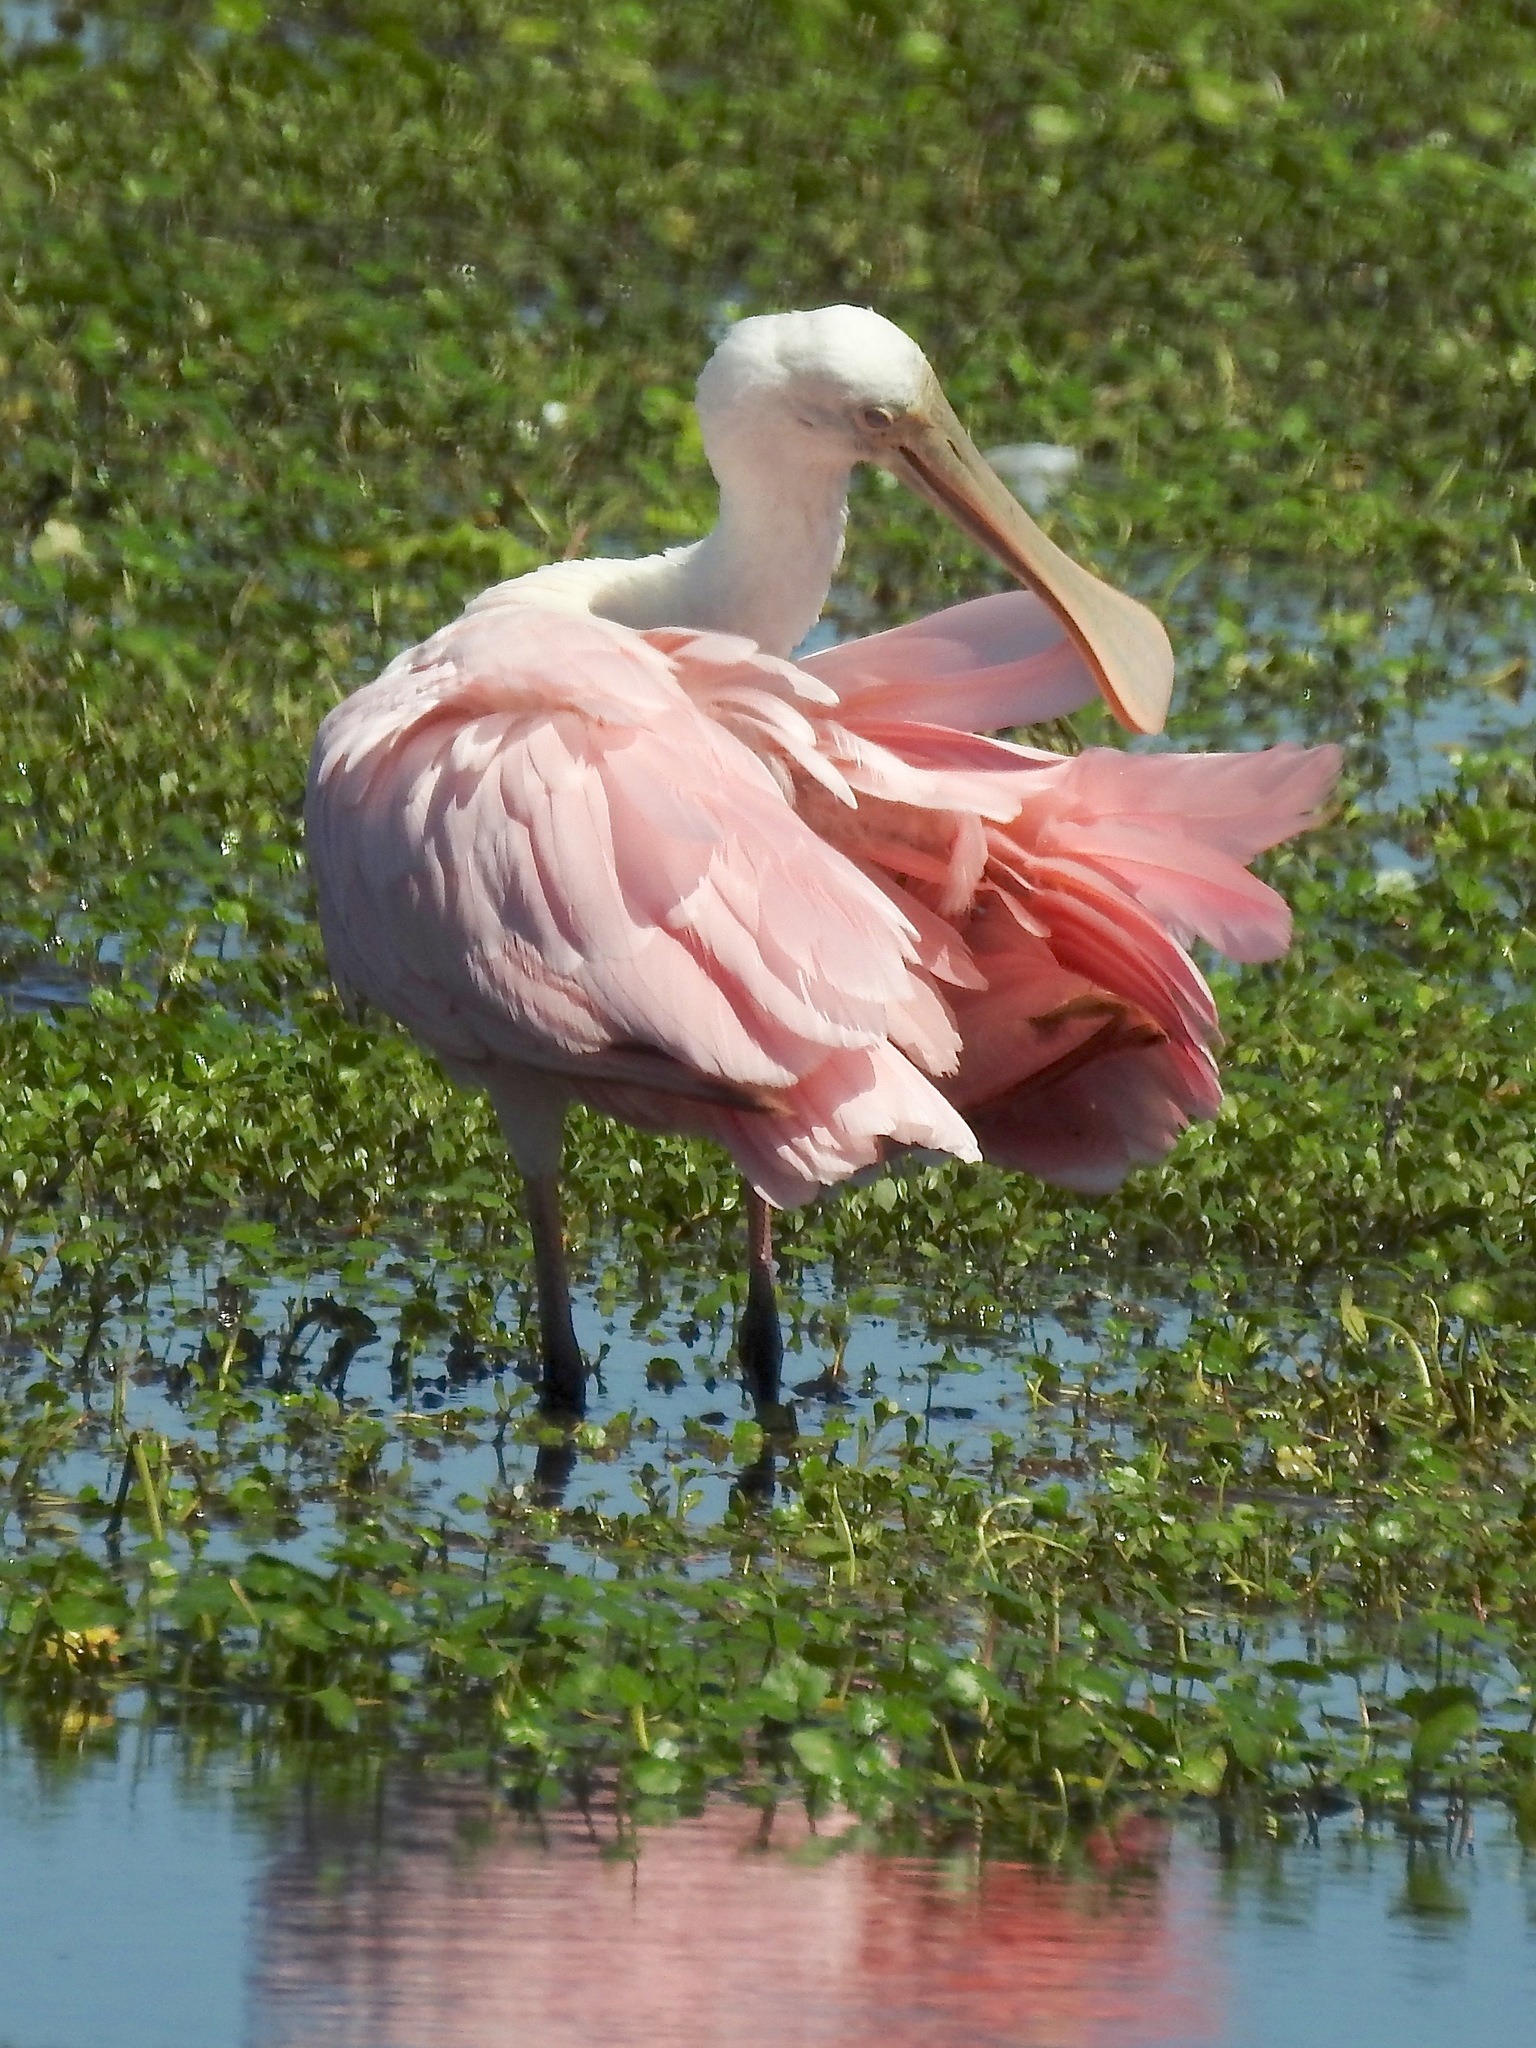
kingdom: Animalia
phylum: Chordata
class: Aves
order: Pelecaniformes
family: Threskiornithidae
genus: Platalea
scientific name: Platalea ajaja
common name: Roseate spoonbill
